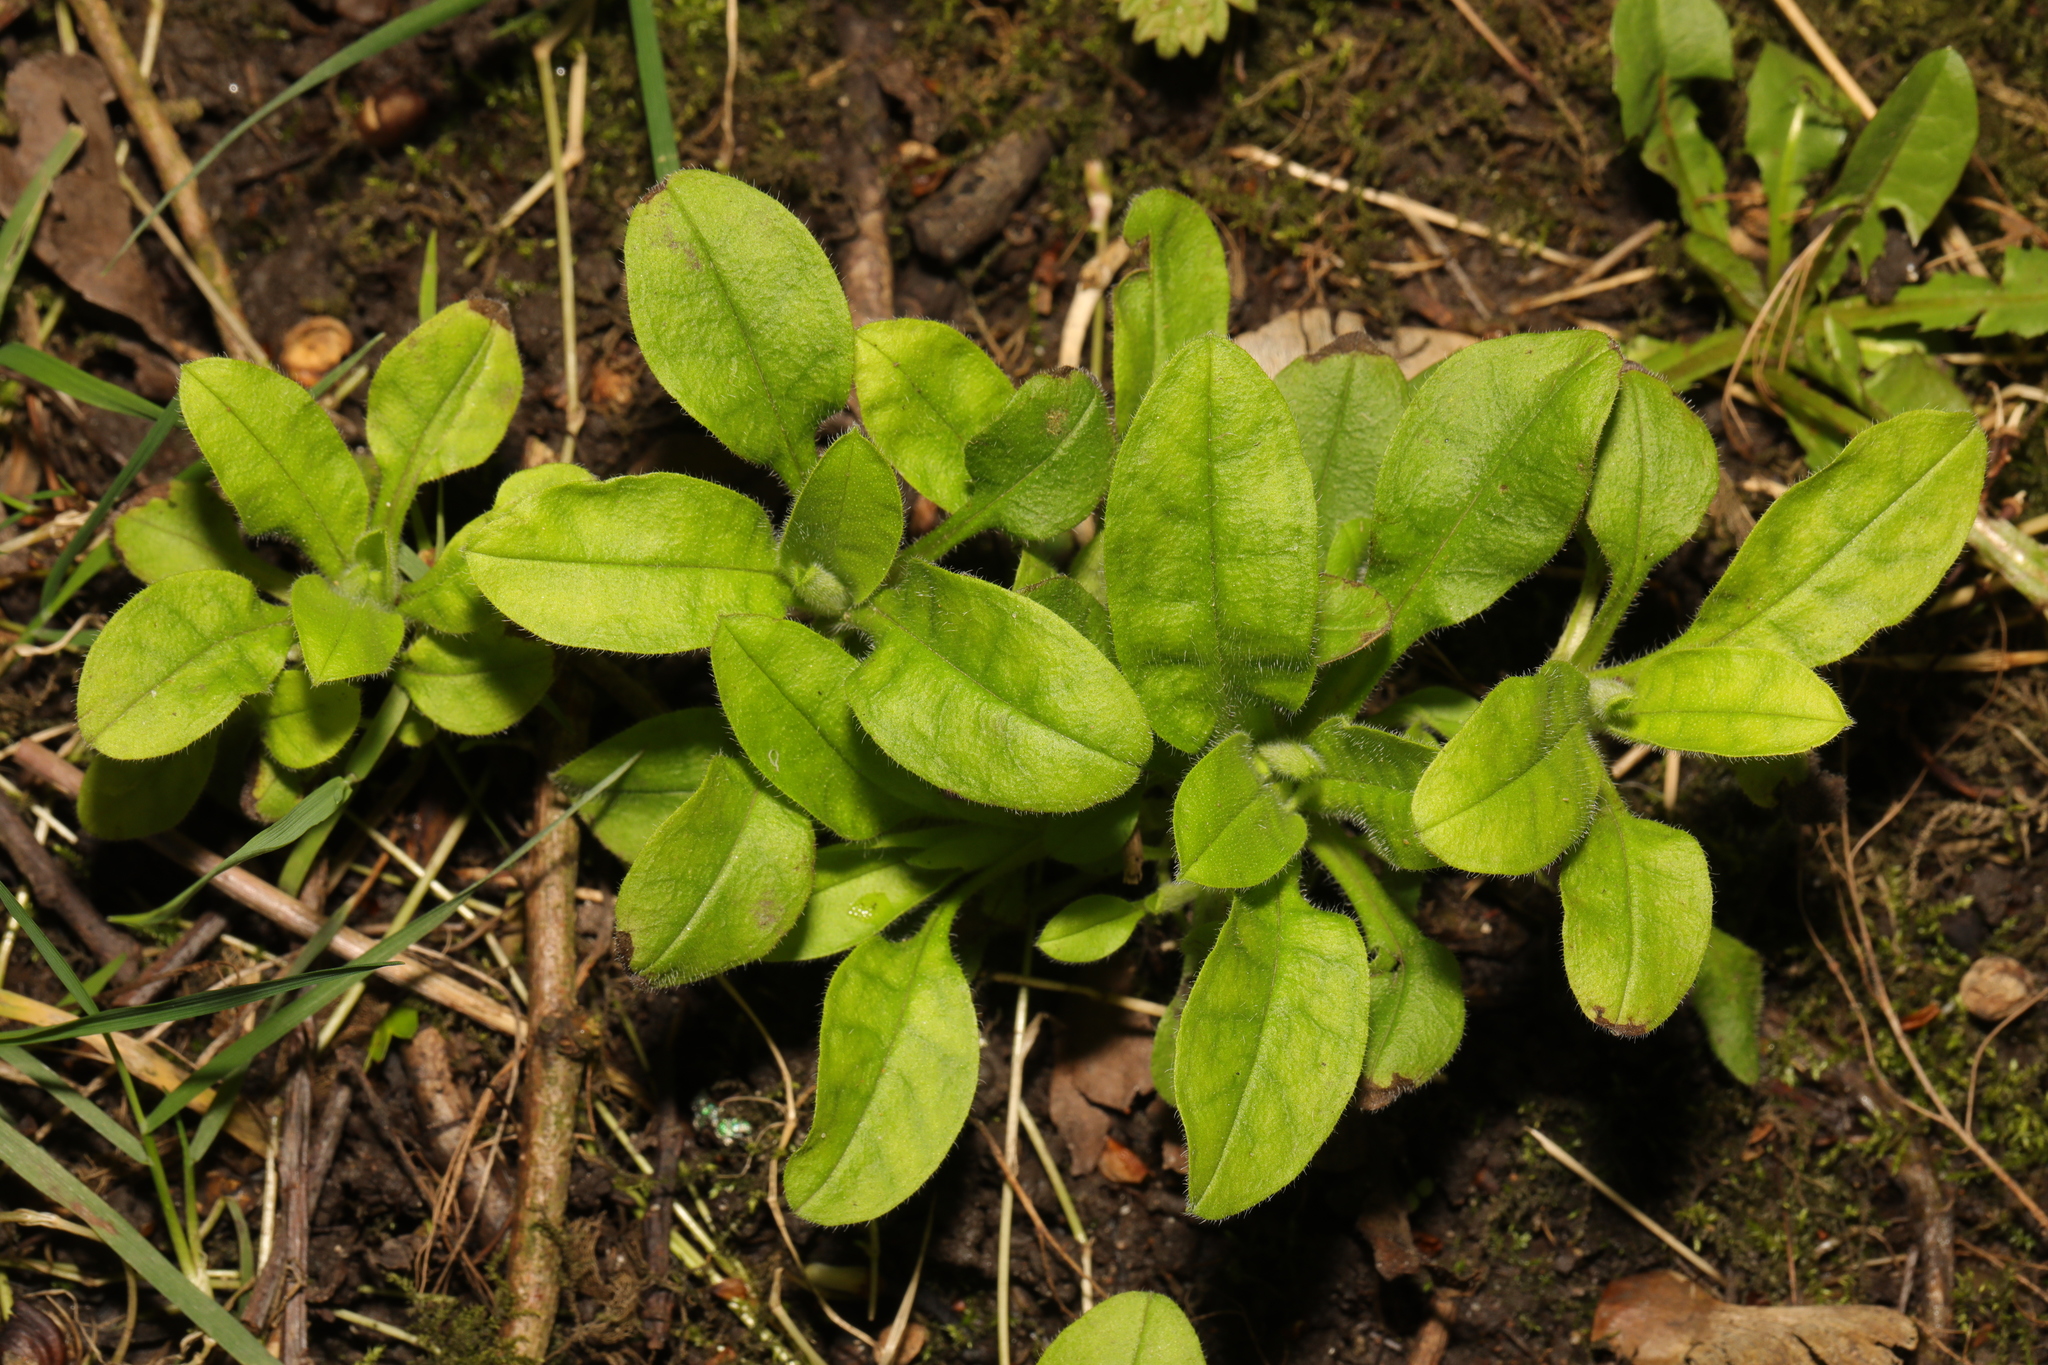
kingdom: Plantae
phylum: Tracheophyta
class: Magnoliopsida
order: Boraginales
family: Boraginaceae
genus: Myosotis
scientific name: Myosotis sylvatica
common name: Wood forget-me-not
